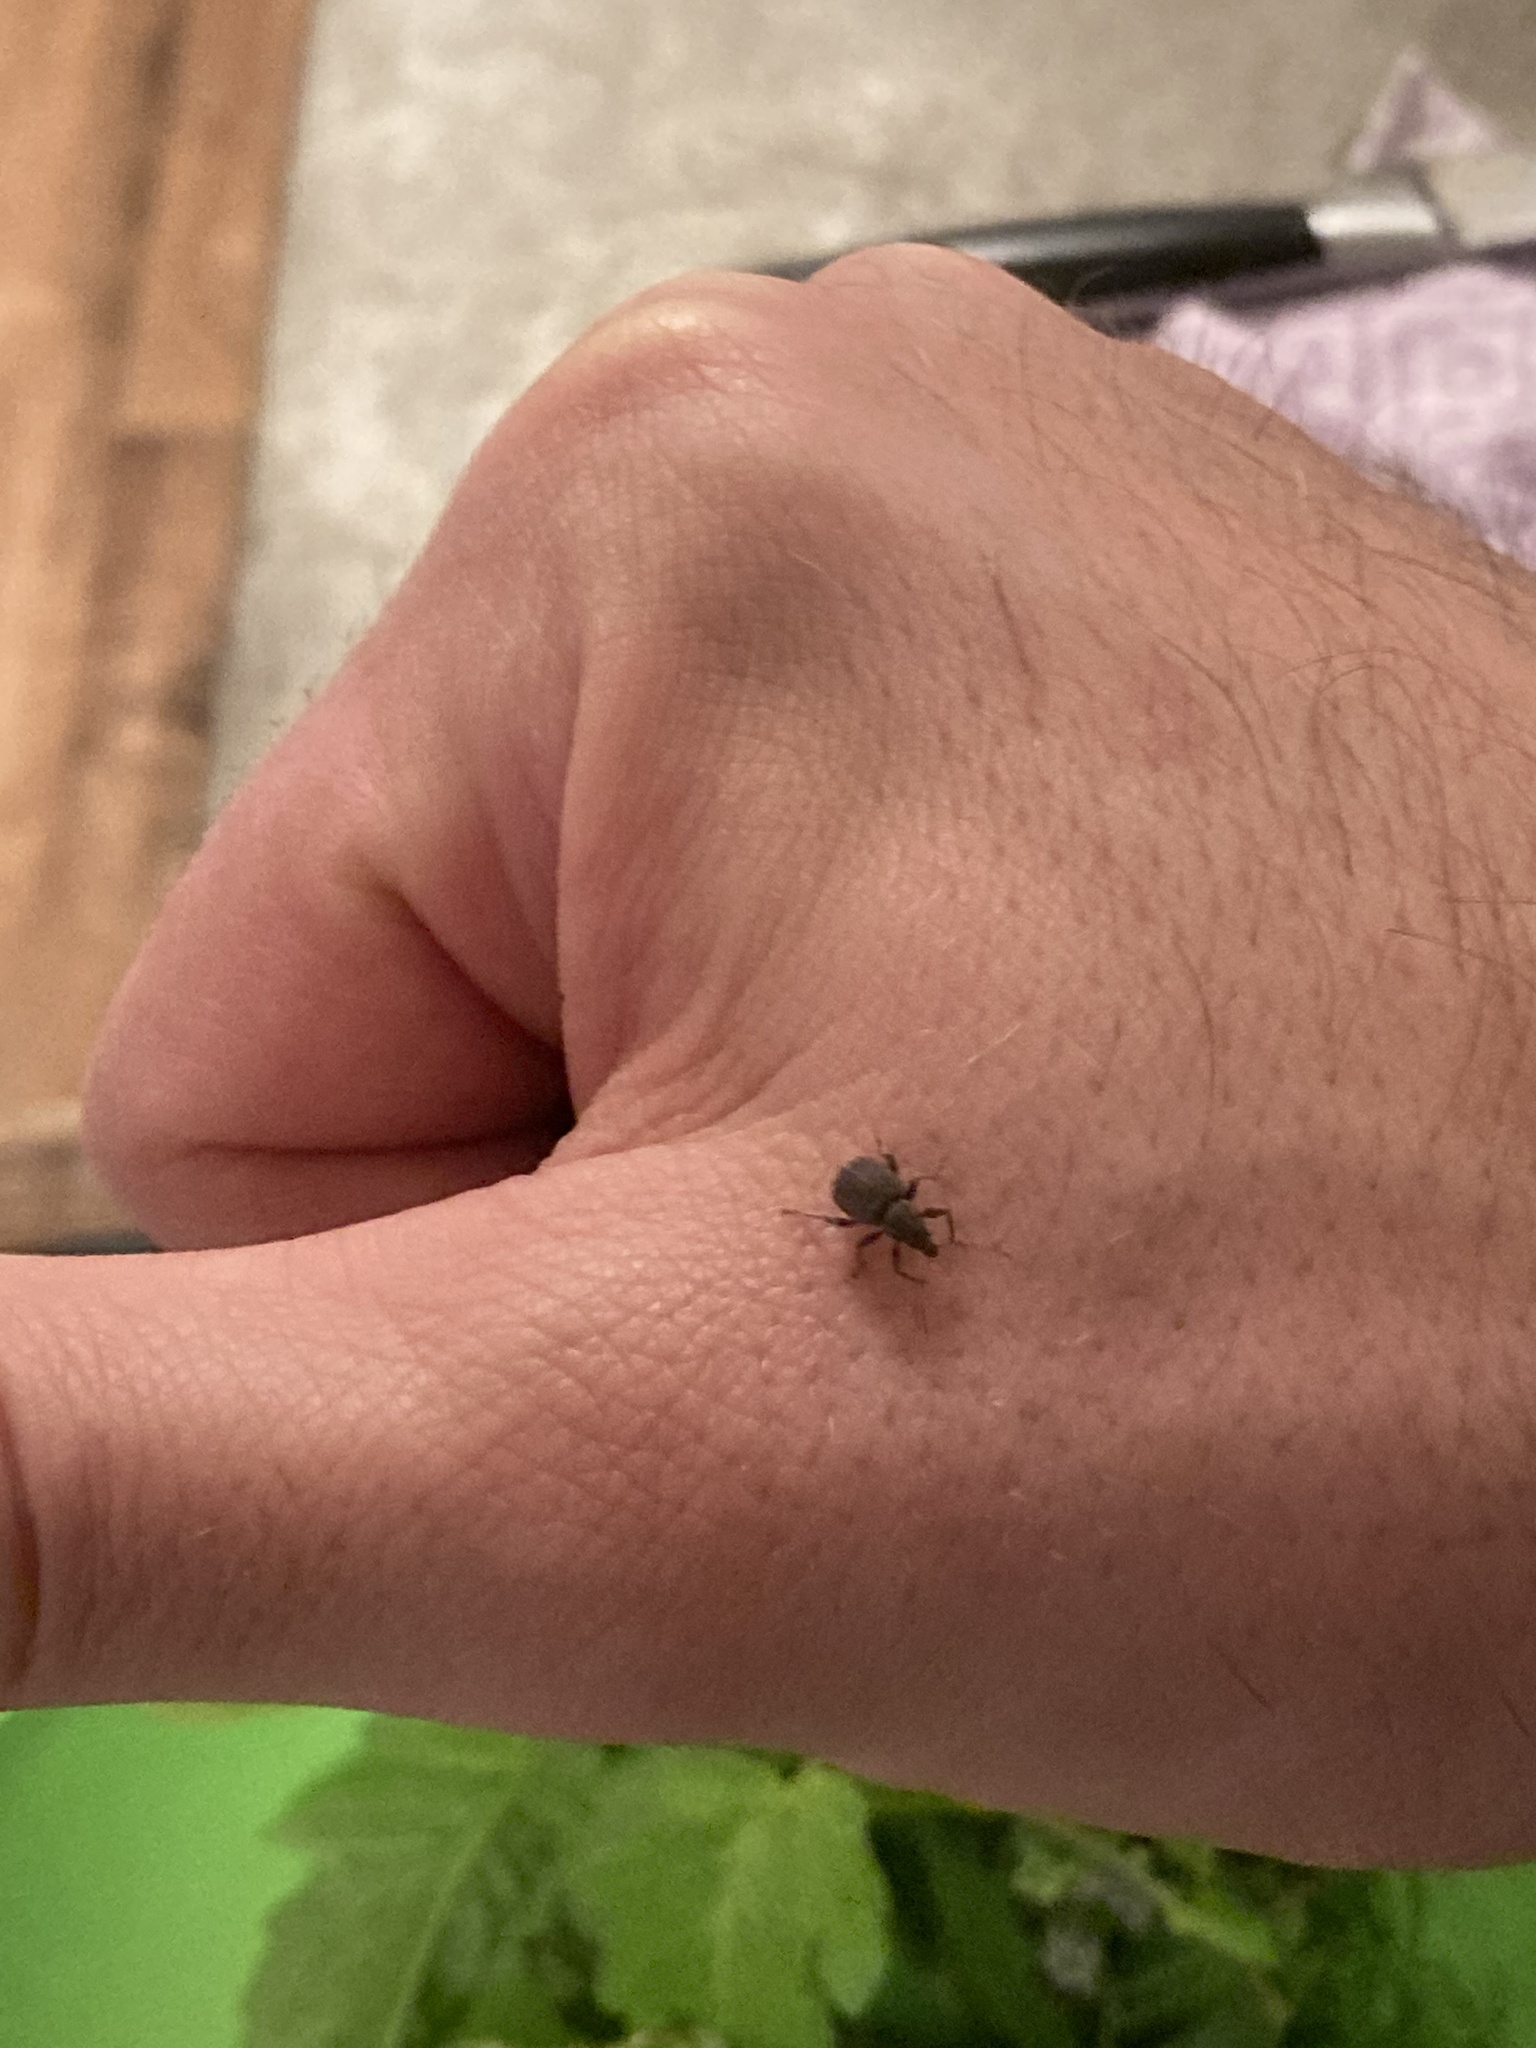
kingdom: Animalia
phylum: Arthropoda
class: Insecta
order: Coleoptera
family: Curculionidae
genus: Phlyctinus
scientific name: Phlyctinus callosus
